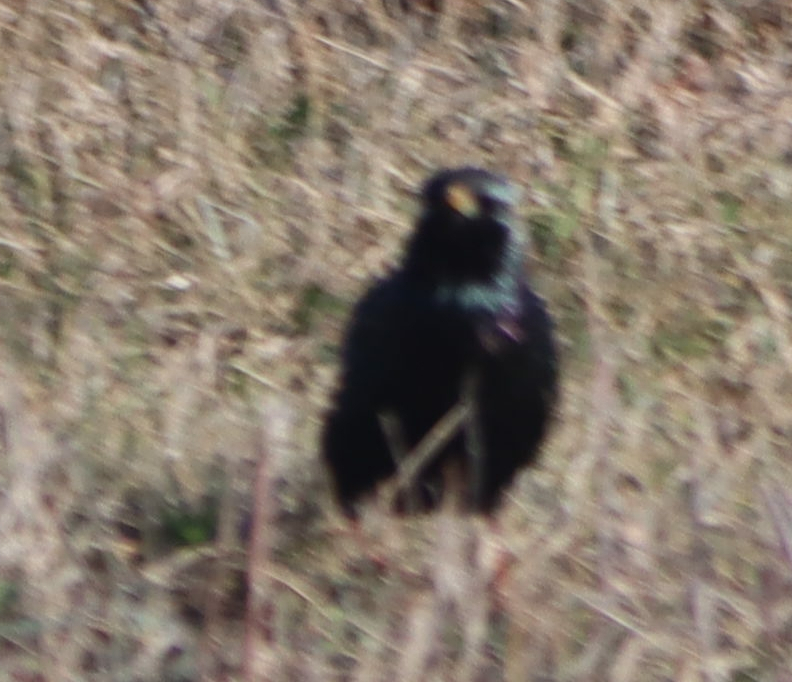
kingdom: Animalia
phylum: Chordata
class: Aves
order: Passeriformes
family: Sturnidae
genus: Sturnus
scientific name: Sturnus vulgaris
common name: Common starling
